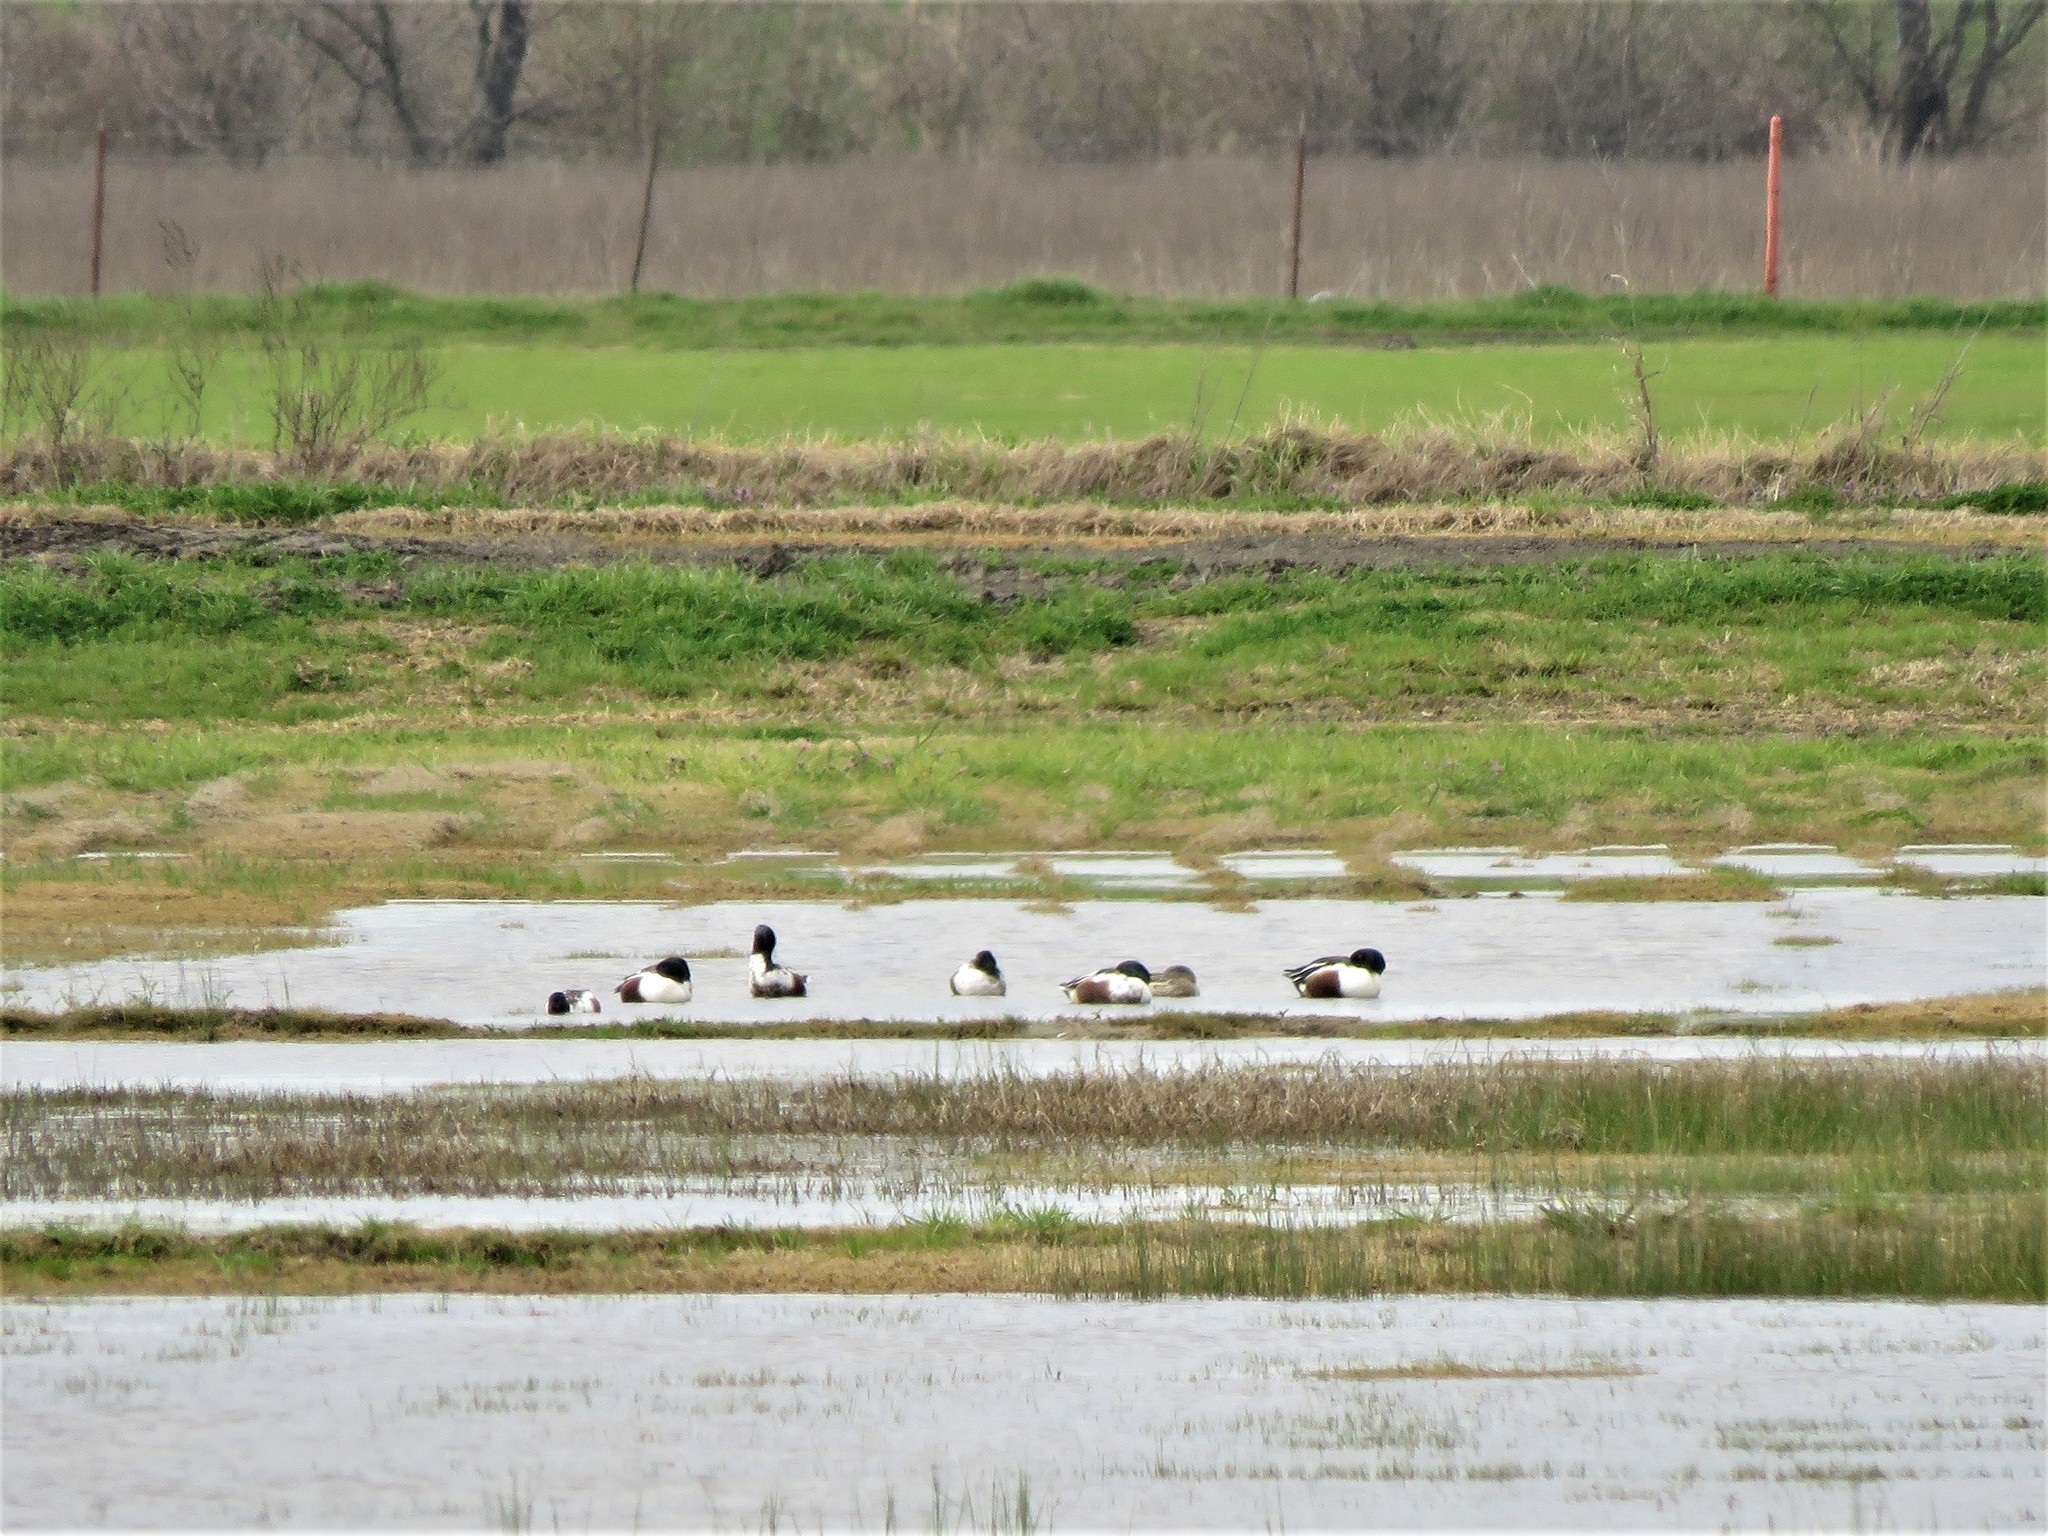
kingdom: Animalia
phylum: Chordata
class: Aves
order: Anseriformes
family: Anatidae
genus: Spatula
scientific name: Spatula clypeata
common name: Northern shoveler
